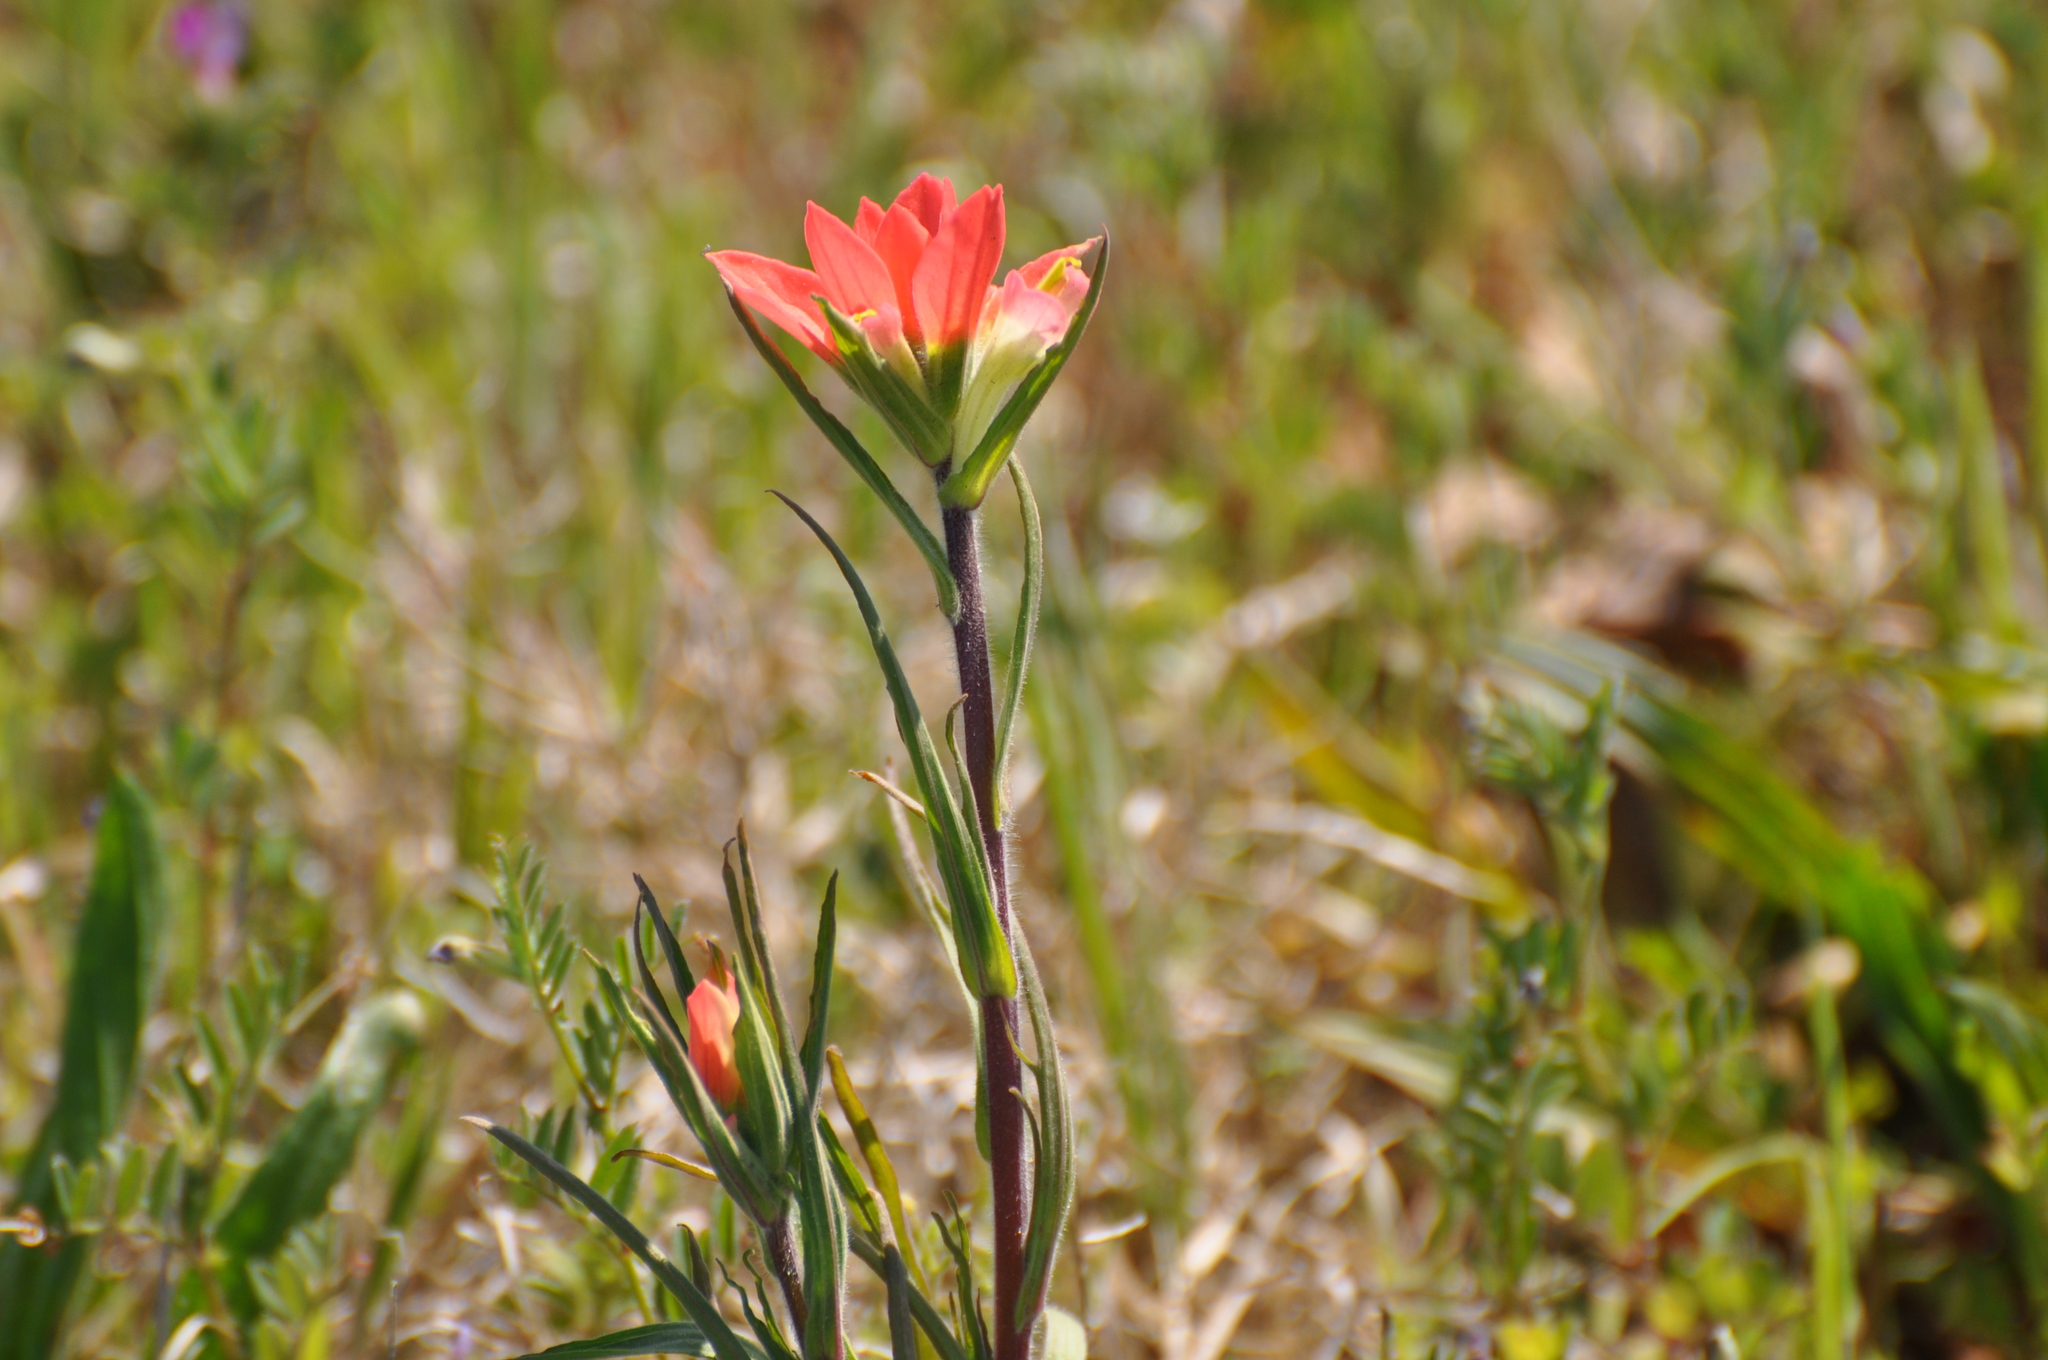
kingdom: Plantae
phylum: Tracheophyta
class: Magnoliopsida
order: Lamiales
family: Orobanchaceae
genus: Castilleja
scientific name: Castilleja indivisa
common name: Texas paintbrush
